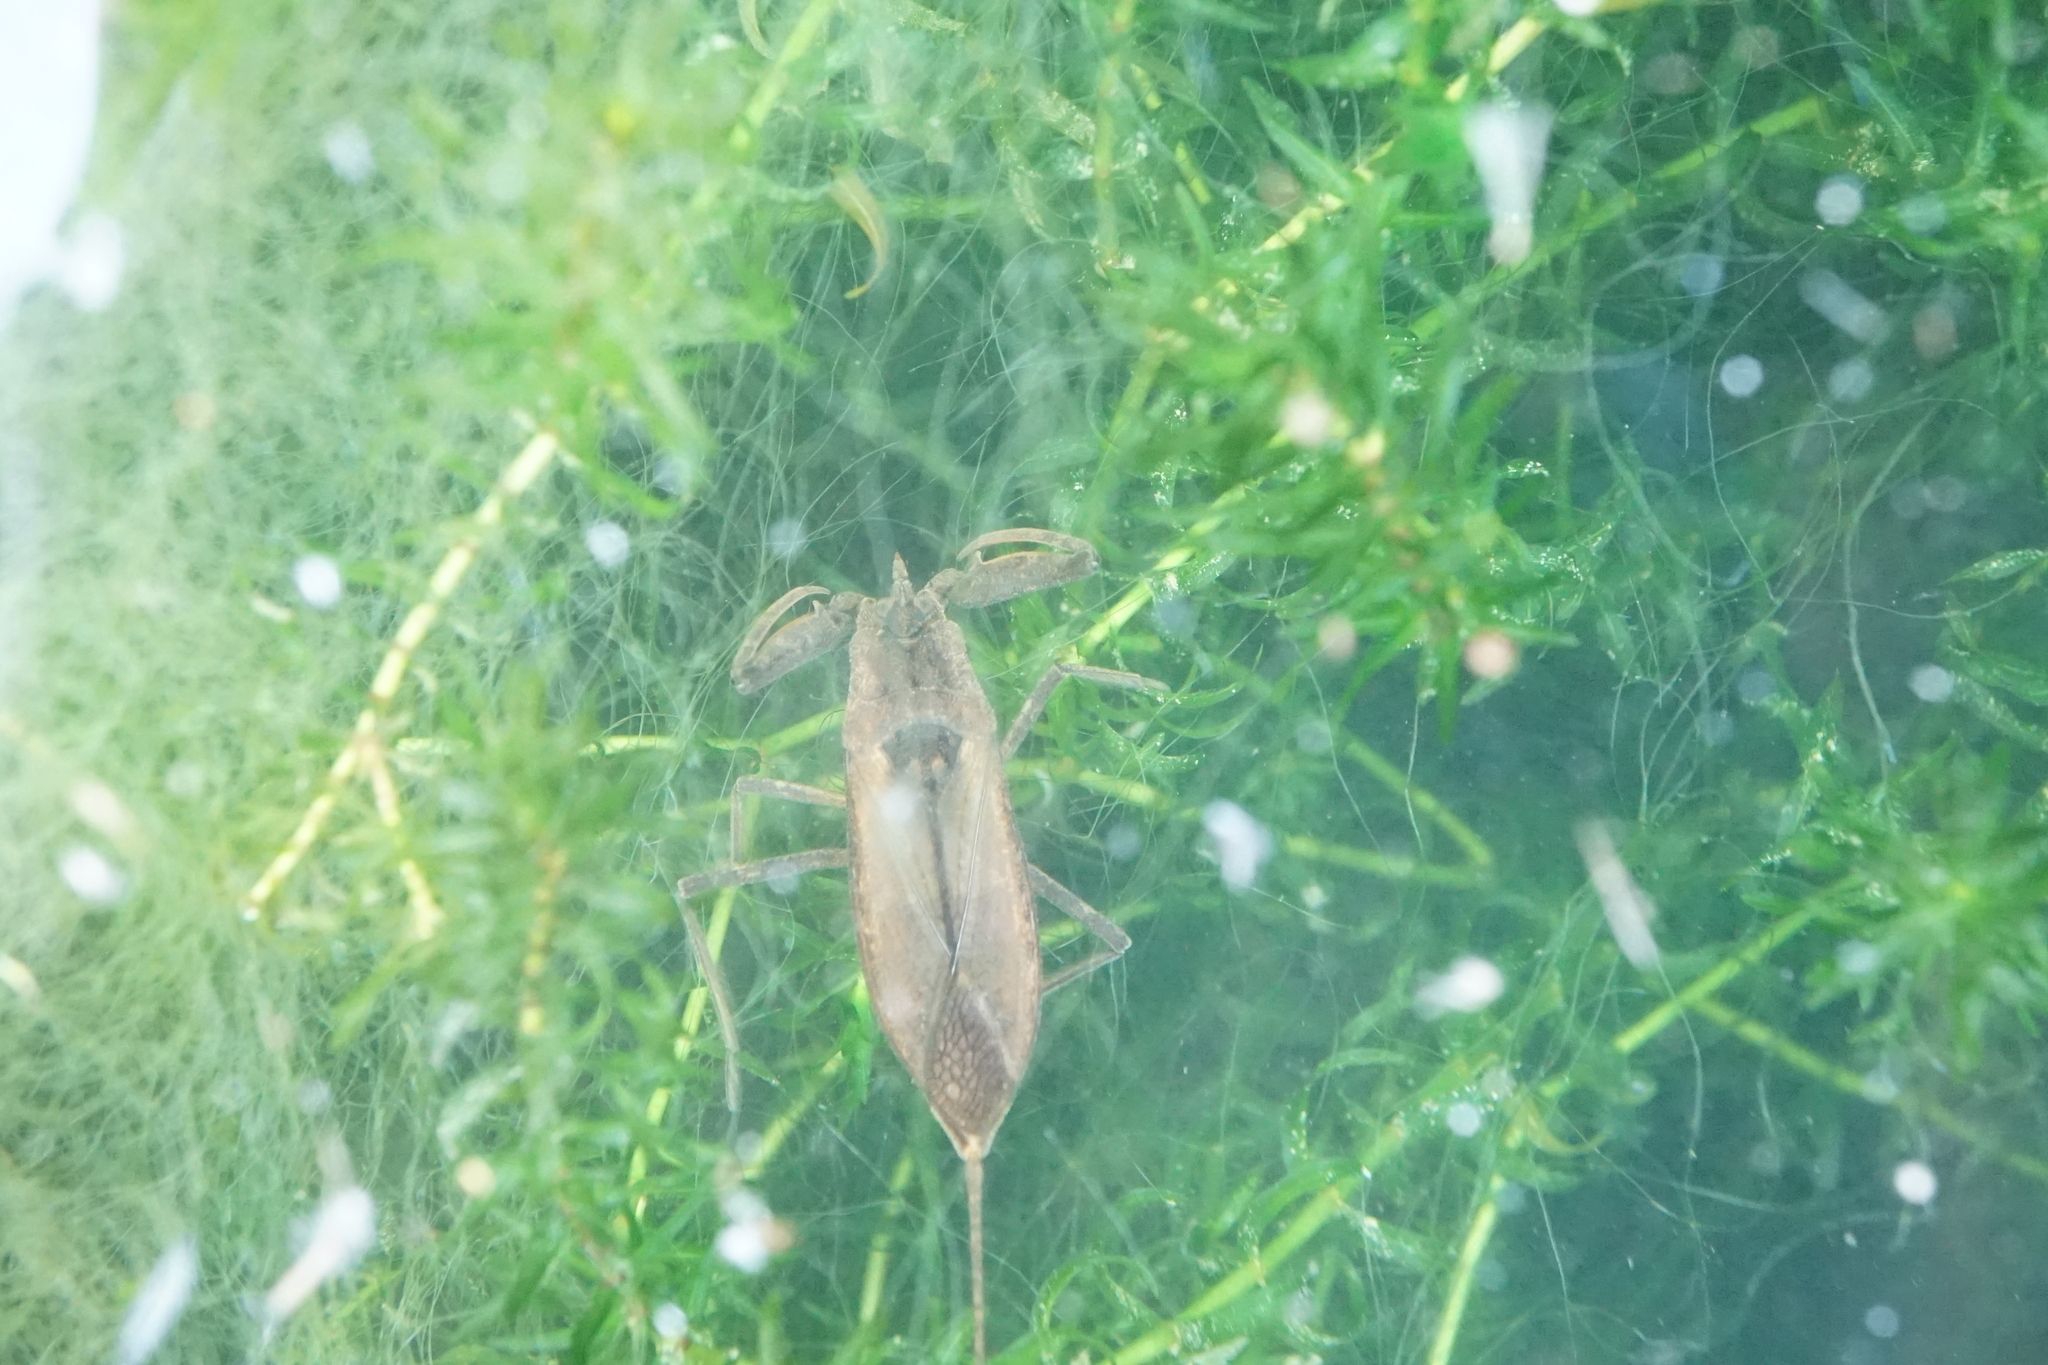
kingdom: Animalia
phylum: Arthropoda
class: Insecta
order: Hemiptera
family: Nepidae
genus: Laccotrephes
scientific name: Laccotrephes japonensis
